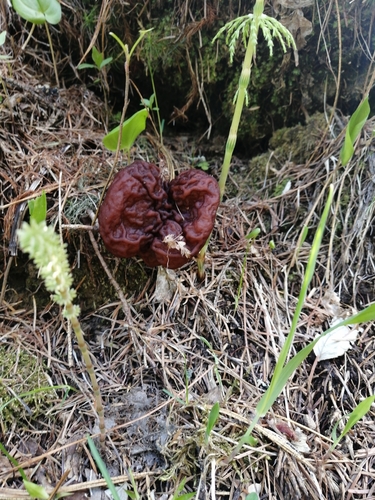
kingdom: Fungi
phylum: Ascomycota
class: Pezizomycetes
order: Pezizales
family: Discinaceae
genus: Gyromitra
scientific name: Gyromitra
